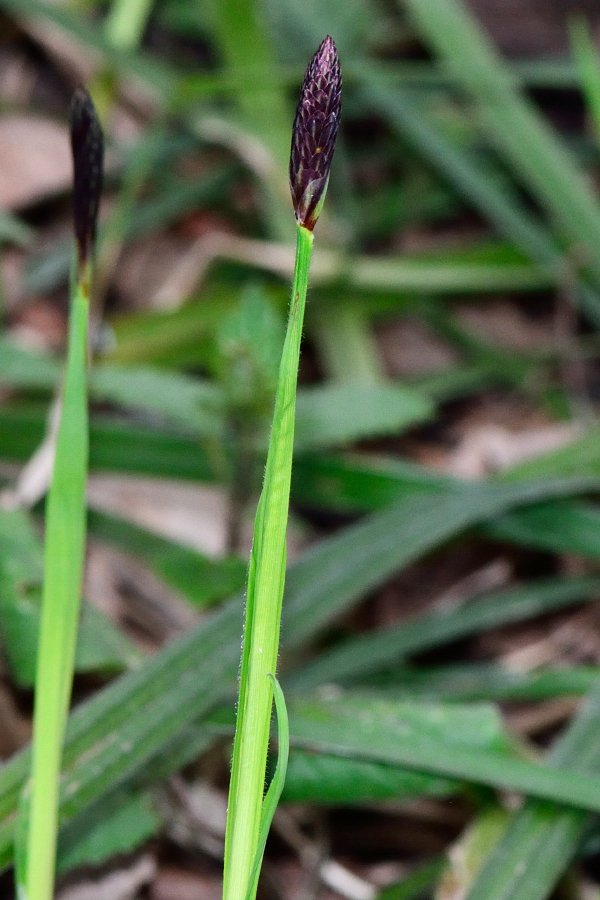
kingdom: Plantae
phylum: Tracheophyta
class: Liliopsida
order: Poales
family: Cyperaceae
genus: Carex
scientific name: Carex pilosa
